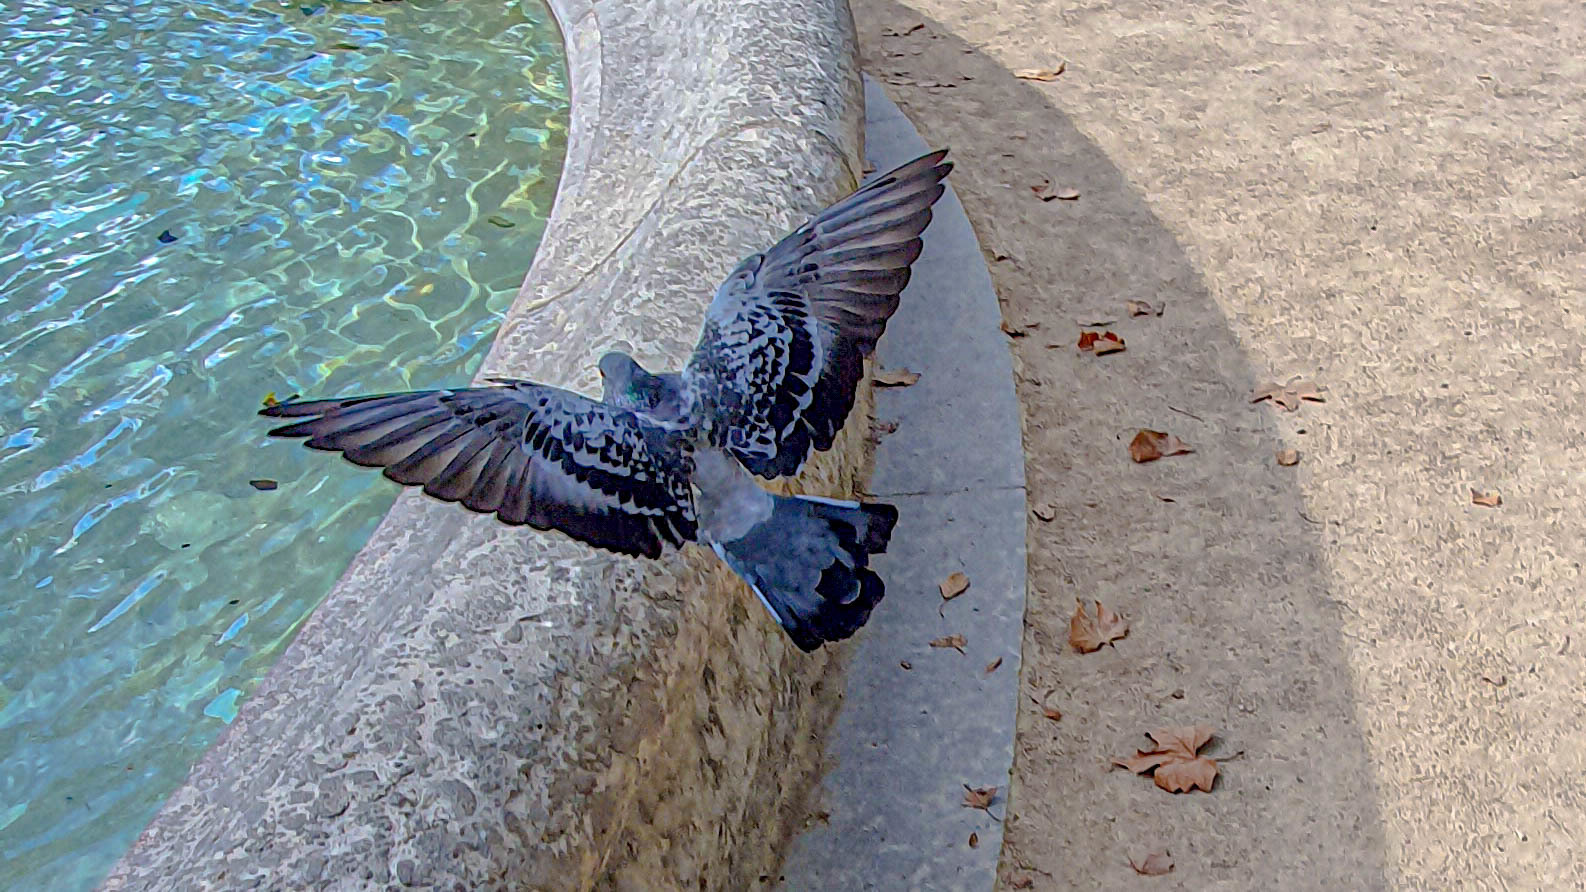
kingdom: Animalia
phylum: Chordata
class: Aves
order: Columbiformes
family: Columbidae
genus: Columba
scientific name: Columba livia
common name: Rock pigeon
